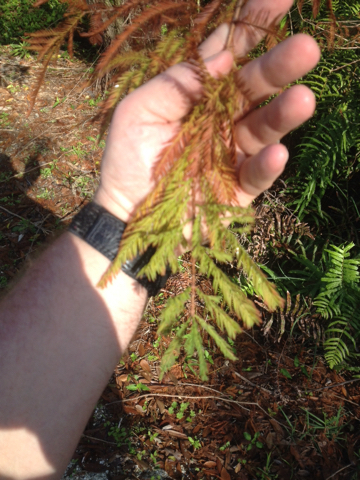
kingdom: Plantae
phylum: Tracheophyta
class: Pinopsida
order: Pinales
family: Cupressaceae
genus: Taxodium
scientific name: Taxodium distichum
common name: Bald cypress
